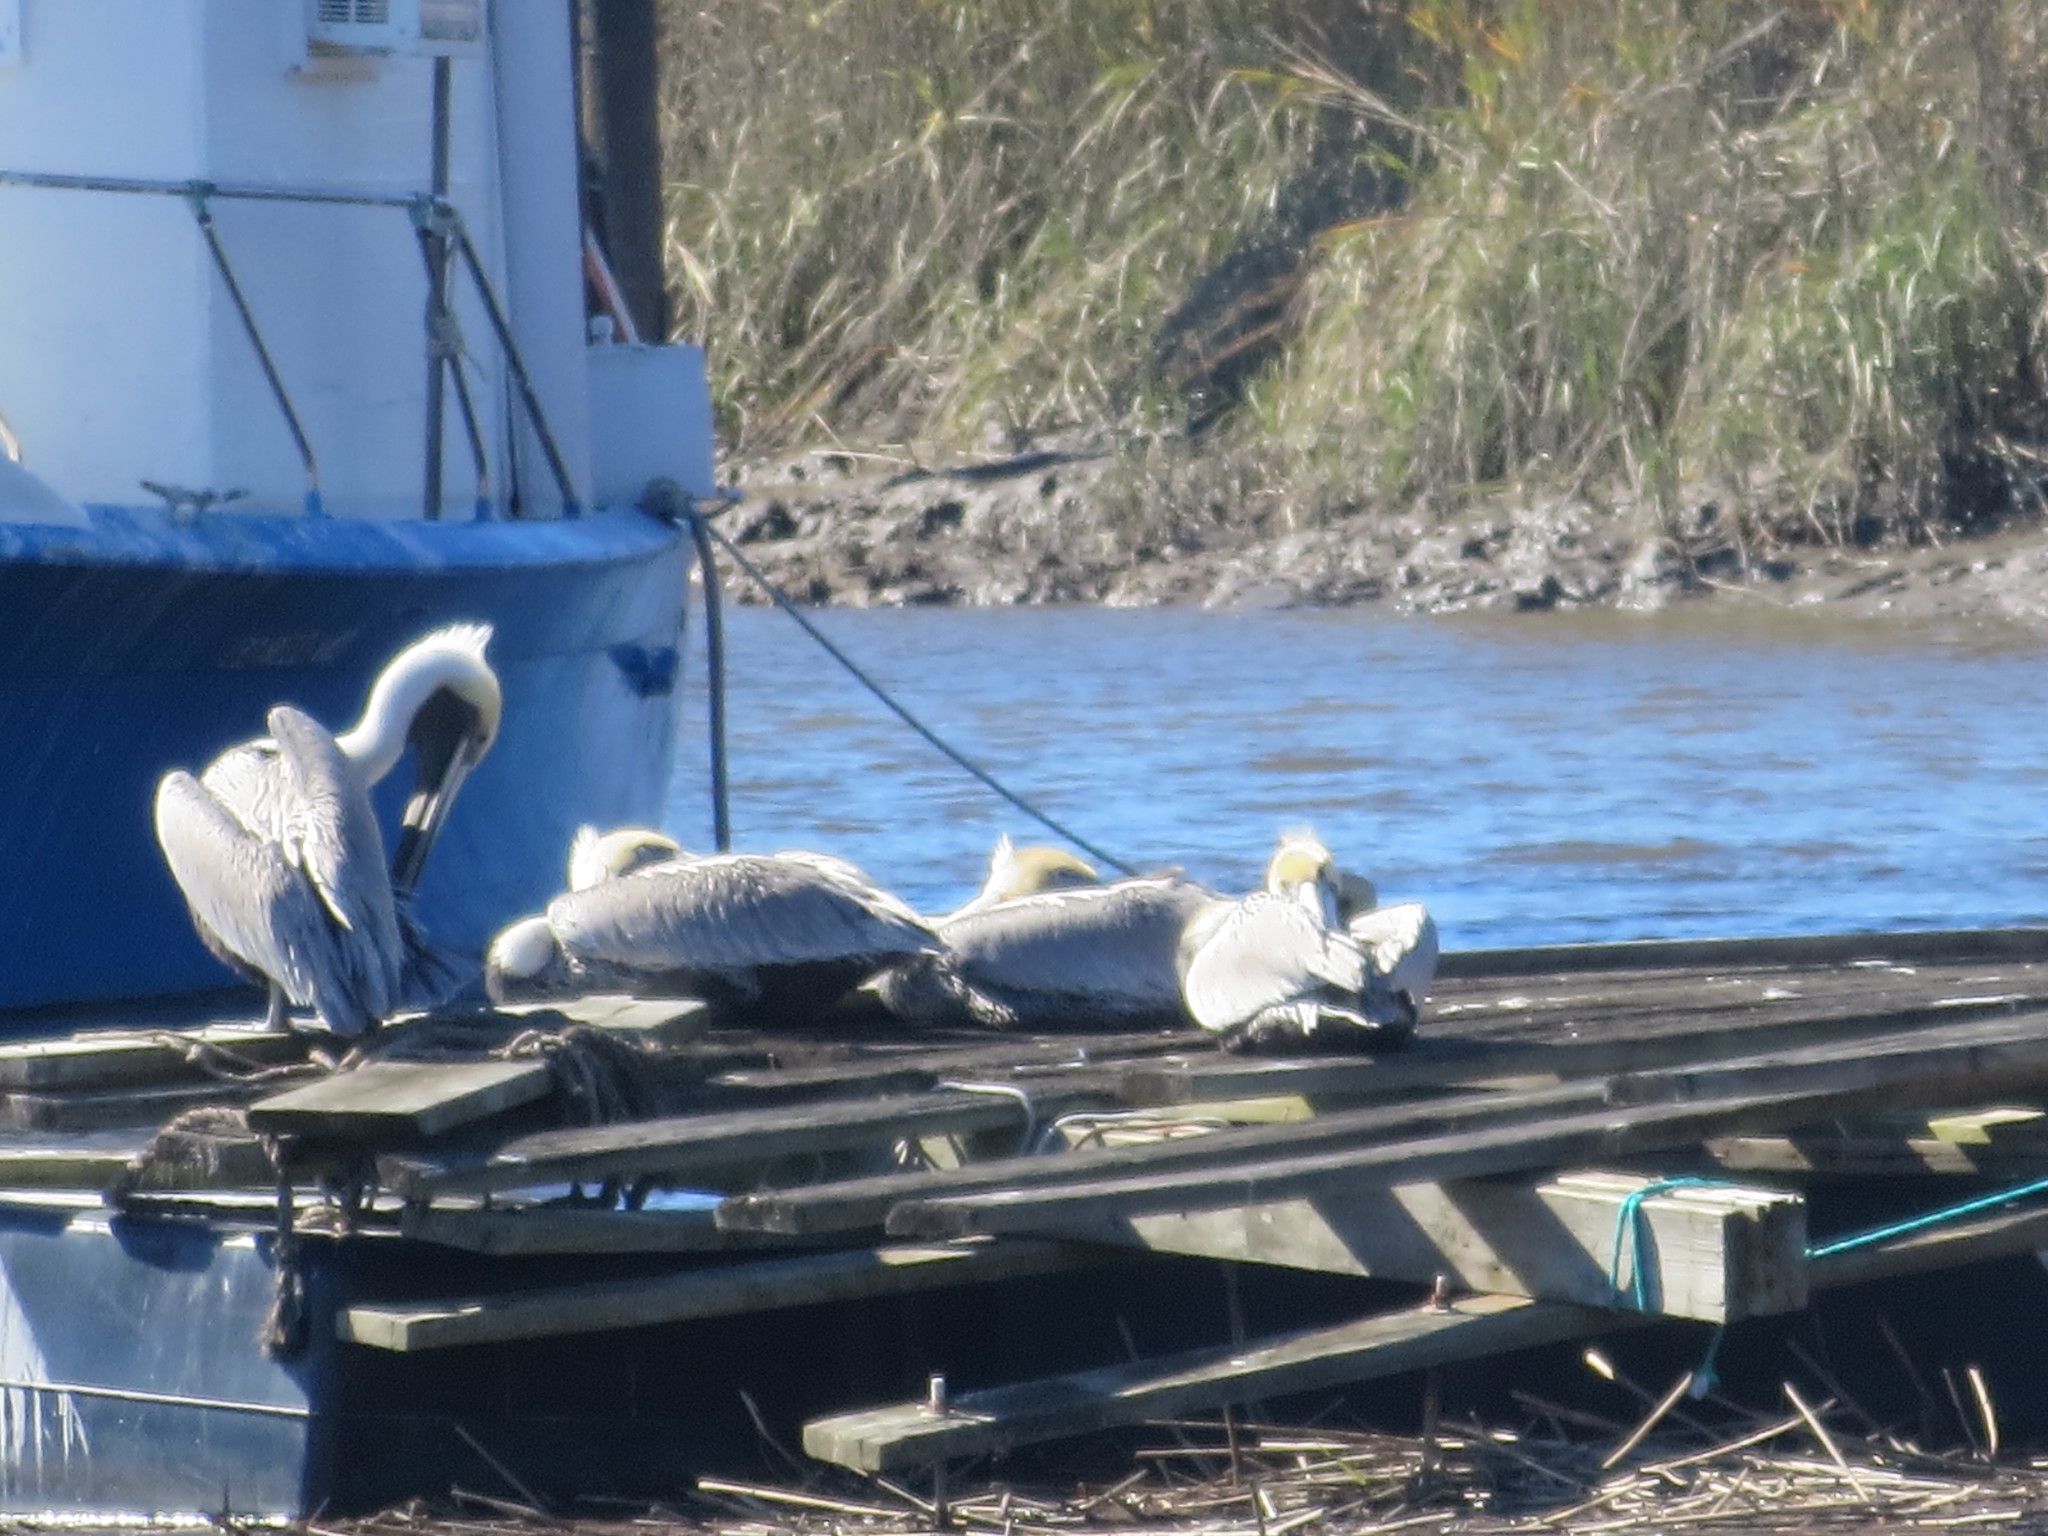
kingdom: Animalia
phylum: Chordata
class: Aves
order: Pelecaniformes
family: Pelecanidae
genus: Pelecanus
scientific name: Pelecanus occidentalis
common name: Brown pelican
